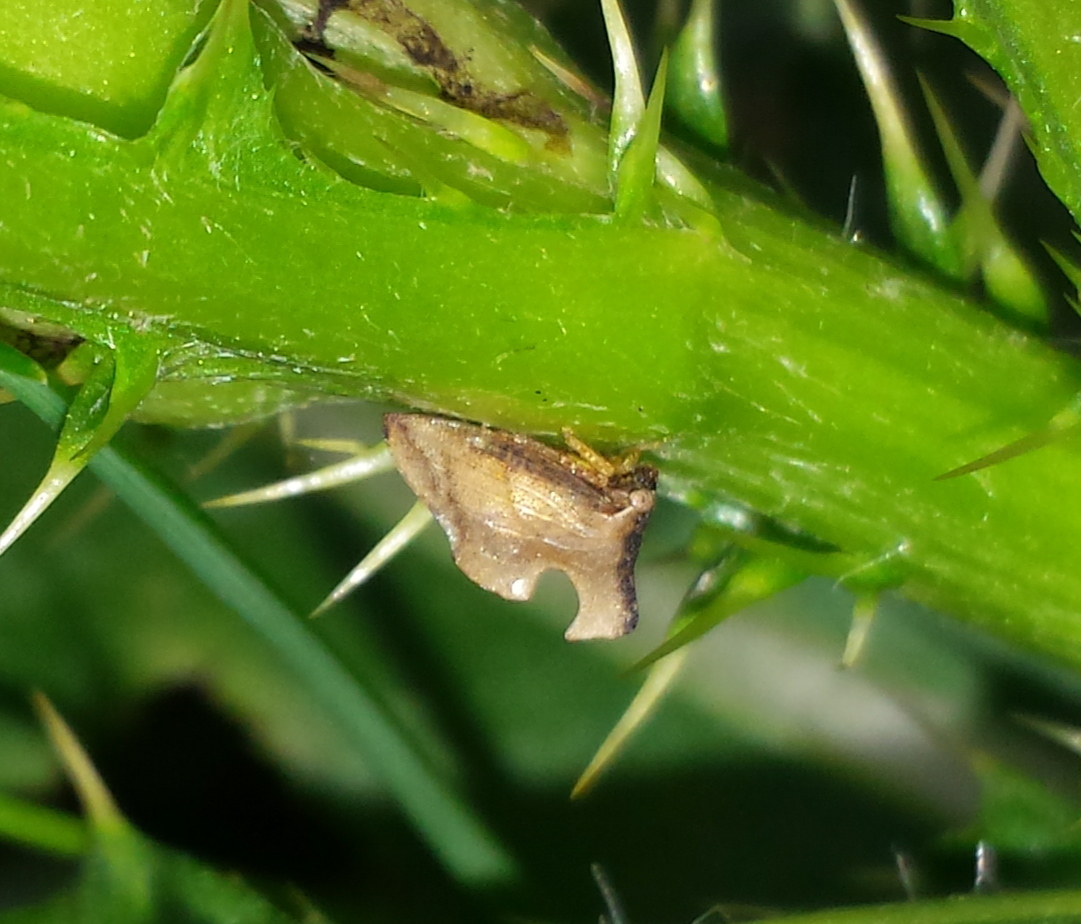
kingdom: Animalia
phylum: Arthropoda
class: Insecta
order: Hemiptera
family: Membracidae
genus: Entylia
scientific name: Entylia carinata
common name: Keeled treehopper
